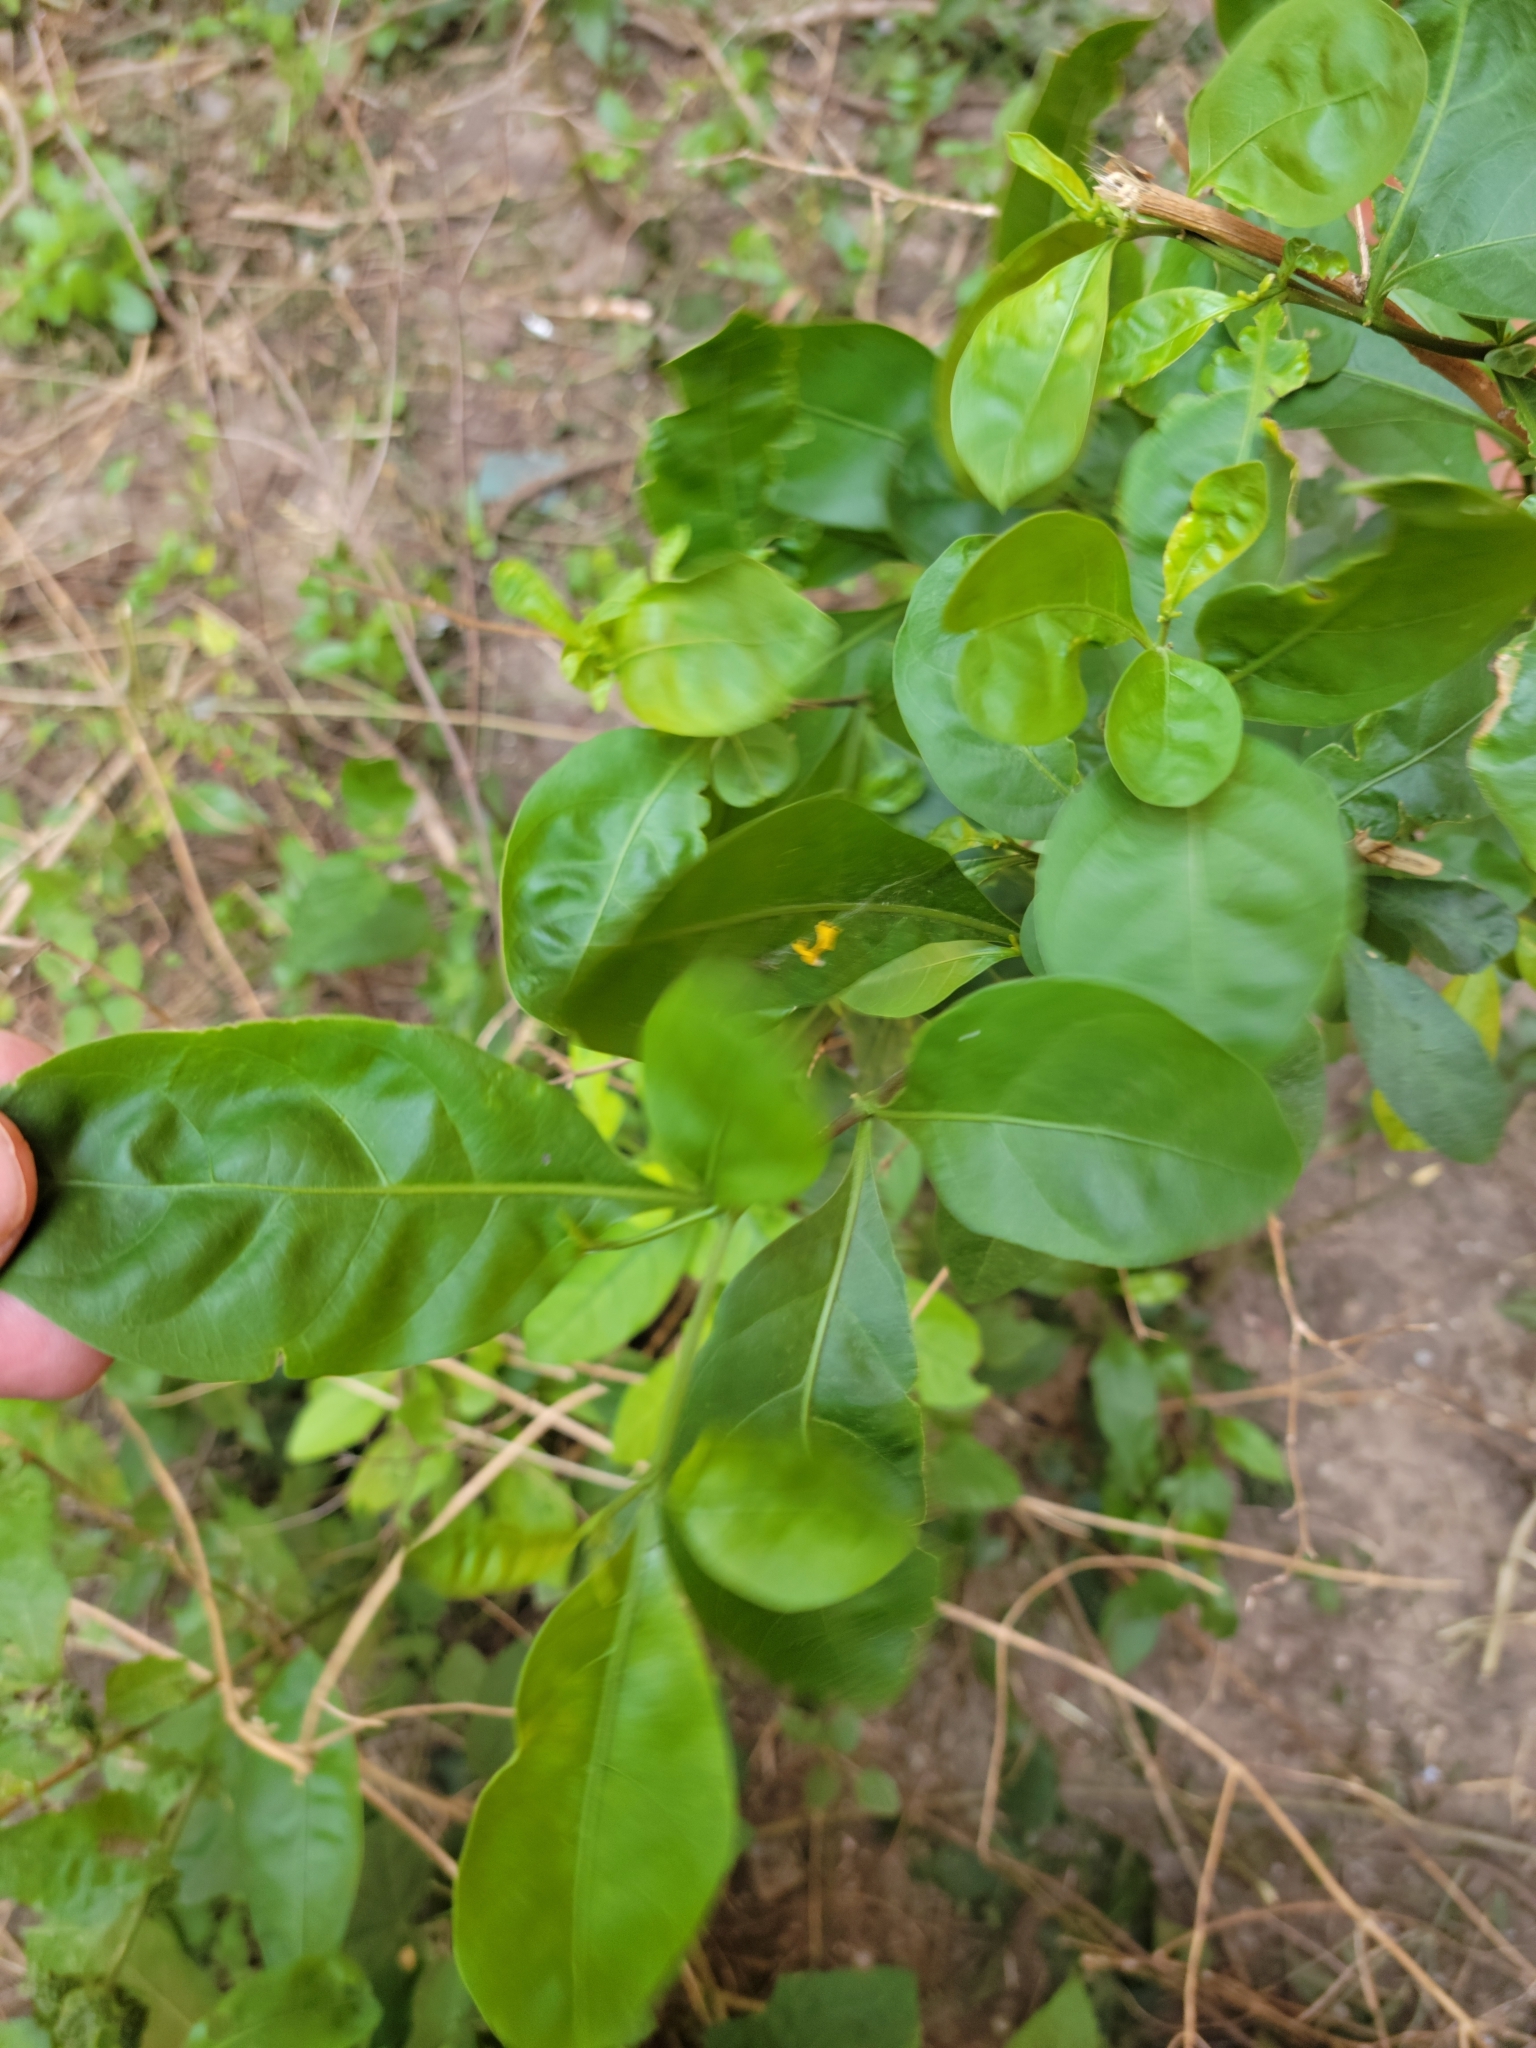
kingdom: Plantae
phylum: Tracheophyta
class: Magnoliopsida
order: Solanales
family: Solanaceae
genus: Solanum
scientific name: Solanum diphyllum
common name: Twoleaf nightshade
